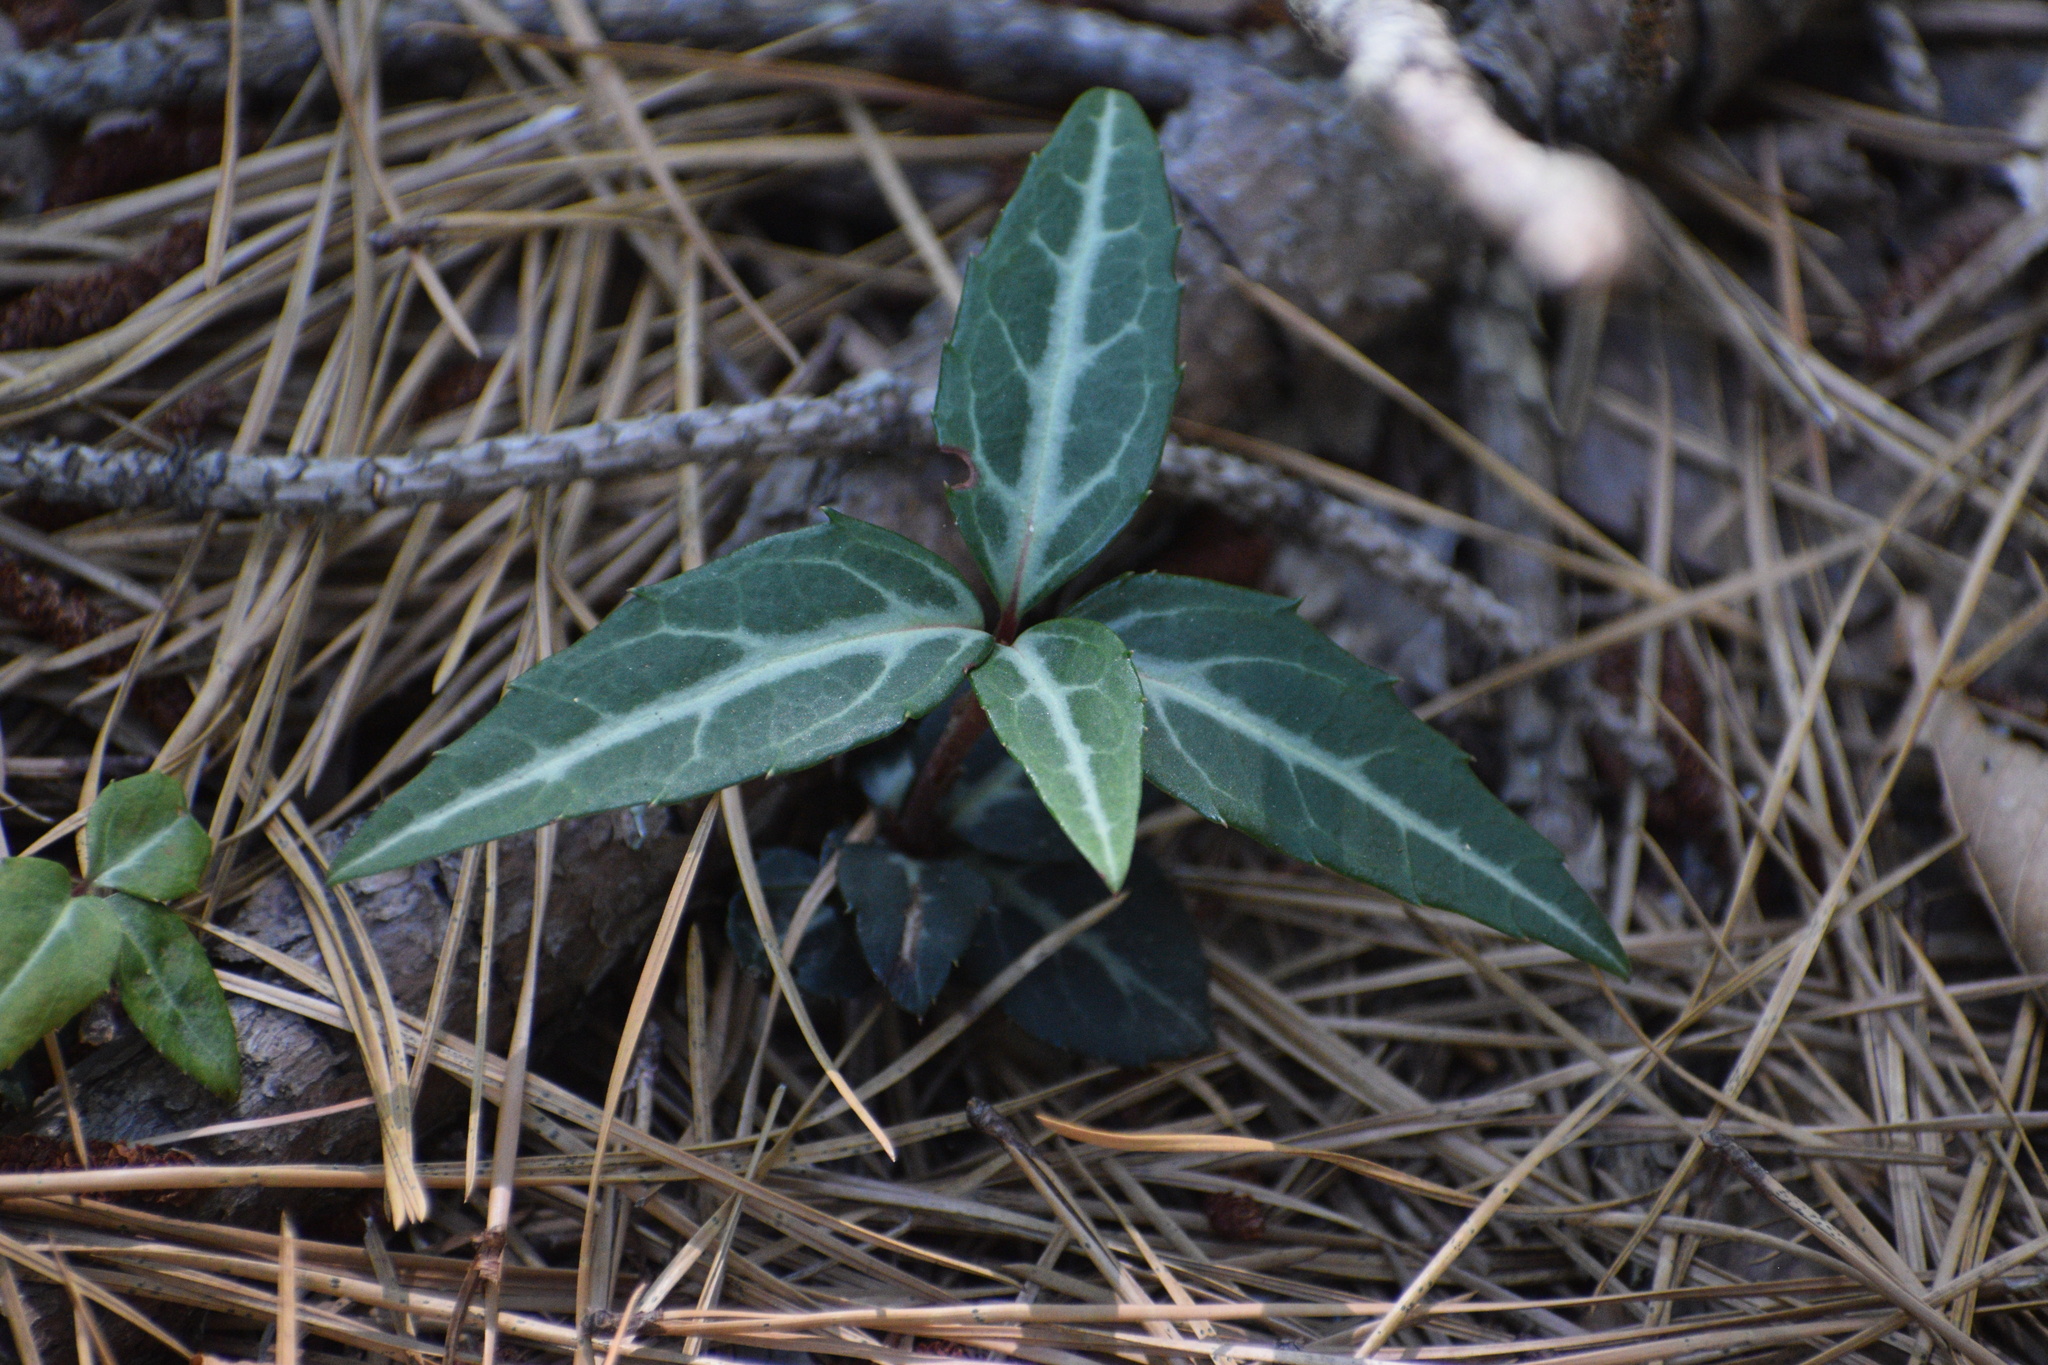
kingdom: Plantae
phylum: Tracheophyta
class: Magnoliopsida
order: Ericales
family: Ericaceae
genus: Chimaphila
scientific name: Chimaphila maculata
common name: Spotted pipsissewa
